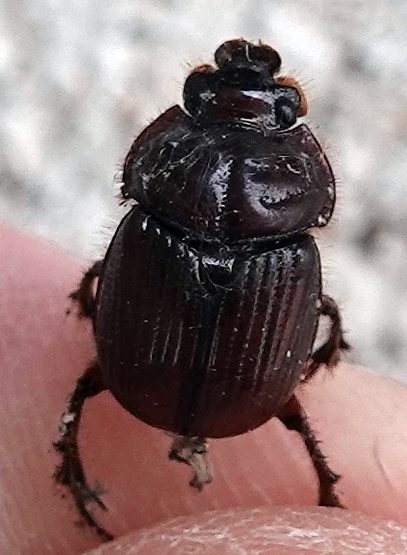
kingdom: Animalia
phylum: Arthropoda
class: Insecta
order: Coleoptera
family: Geotrupidae
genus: Eucanthus
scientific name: Eucanthus impressus
